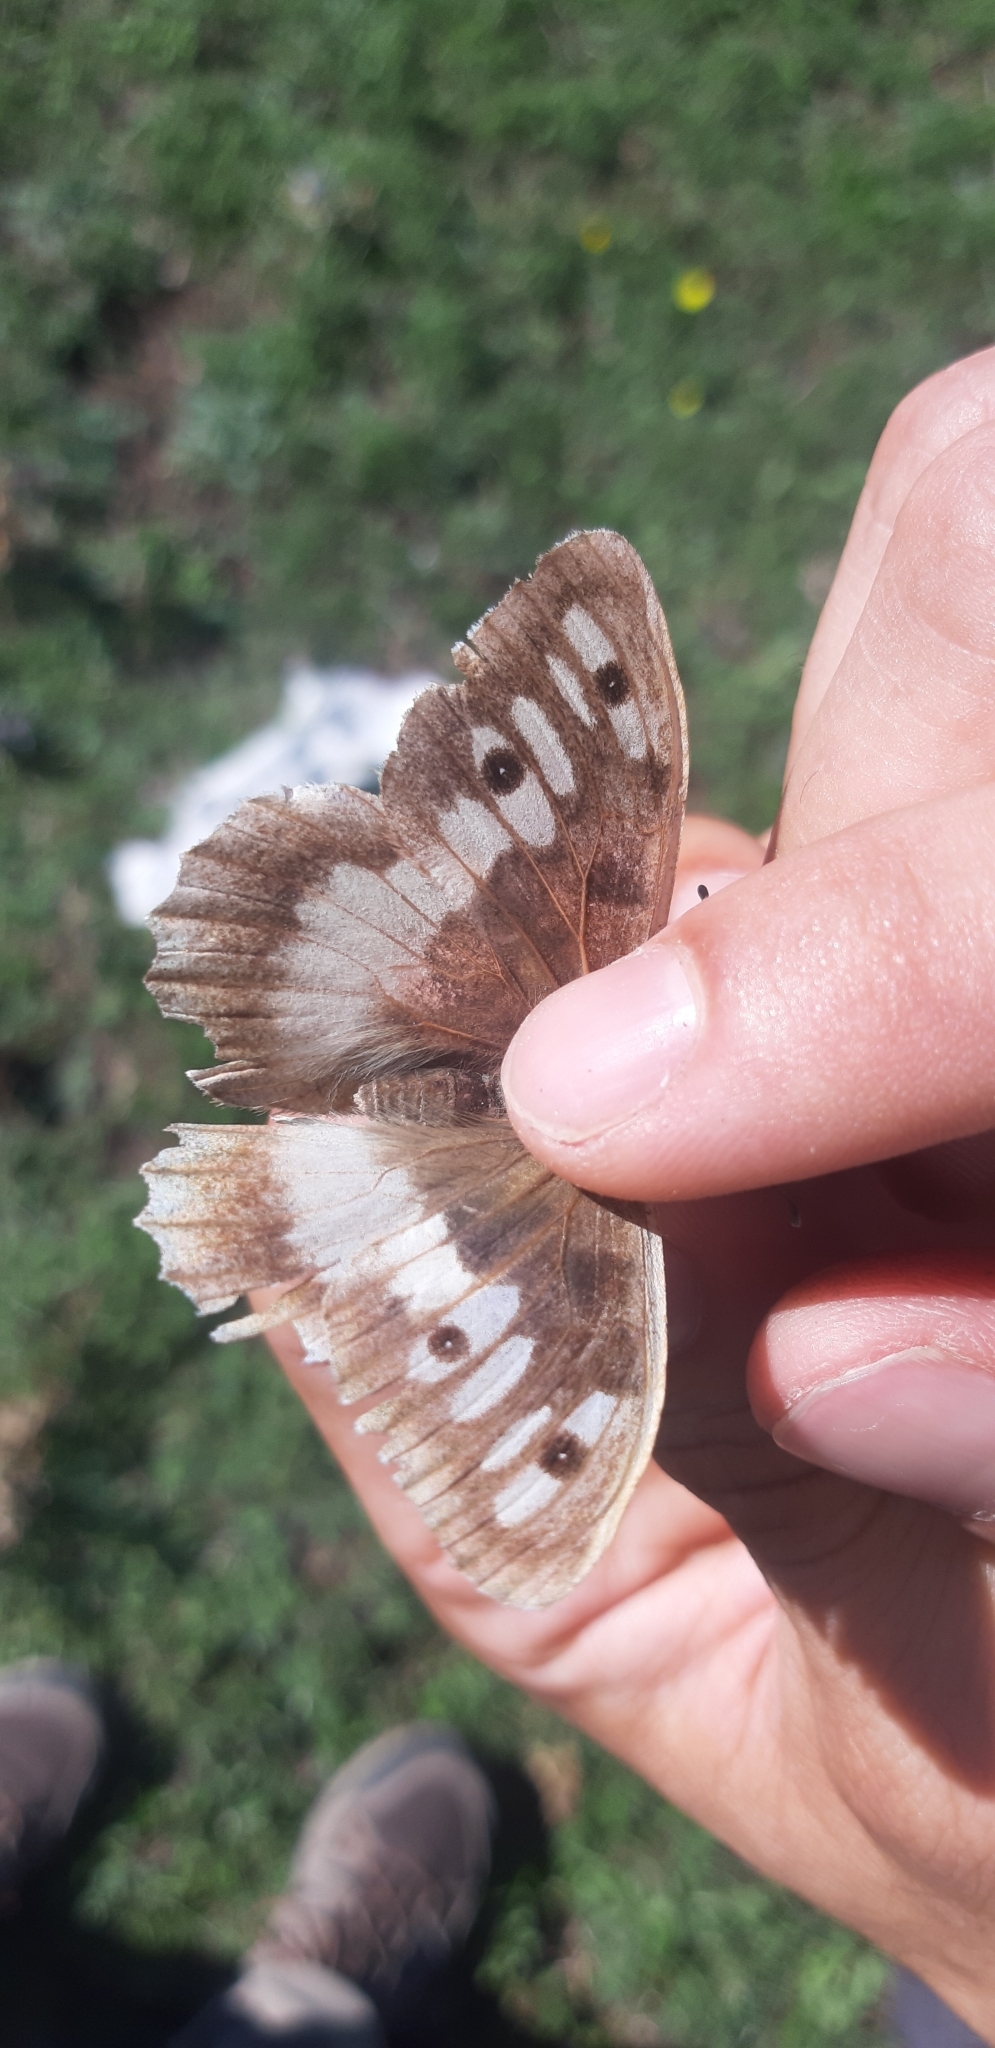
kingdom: Animalia
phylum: Arthropoda
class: Insecta
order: Lepidoptera
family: Nymphalidae
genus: Satyrus
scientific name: Satyrus briseis
